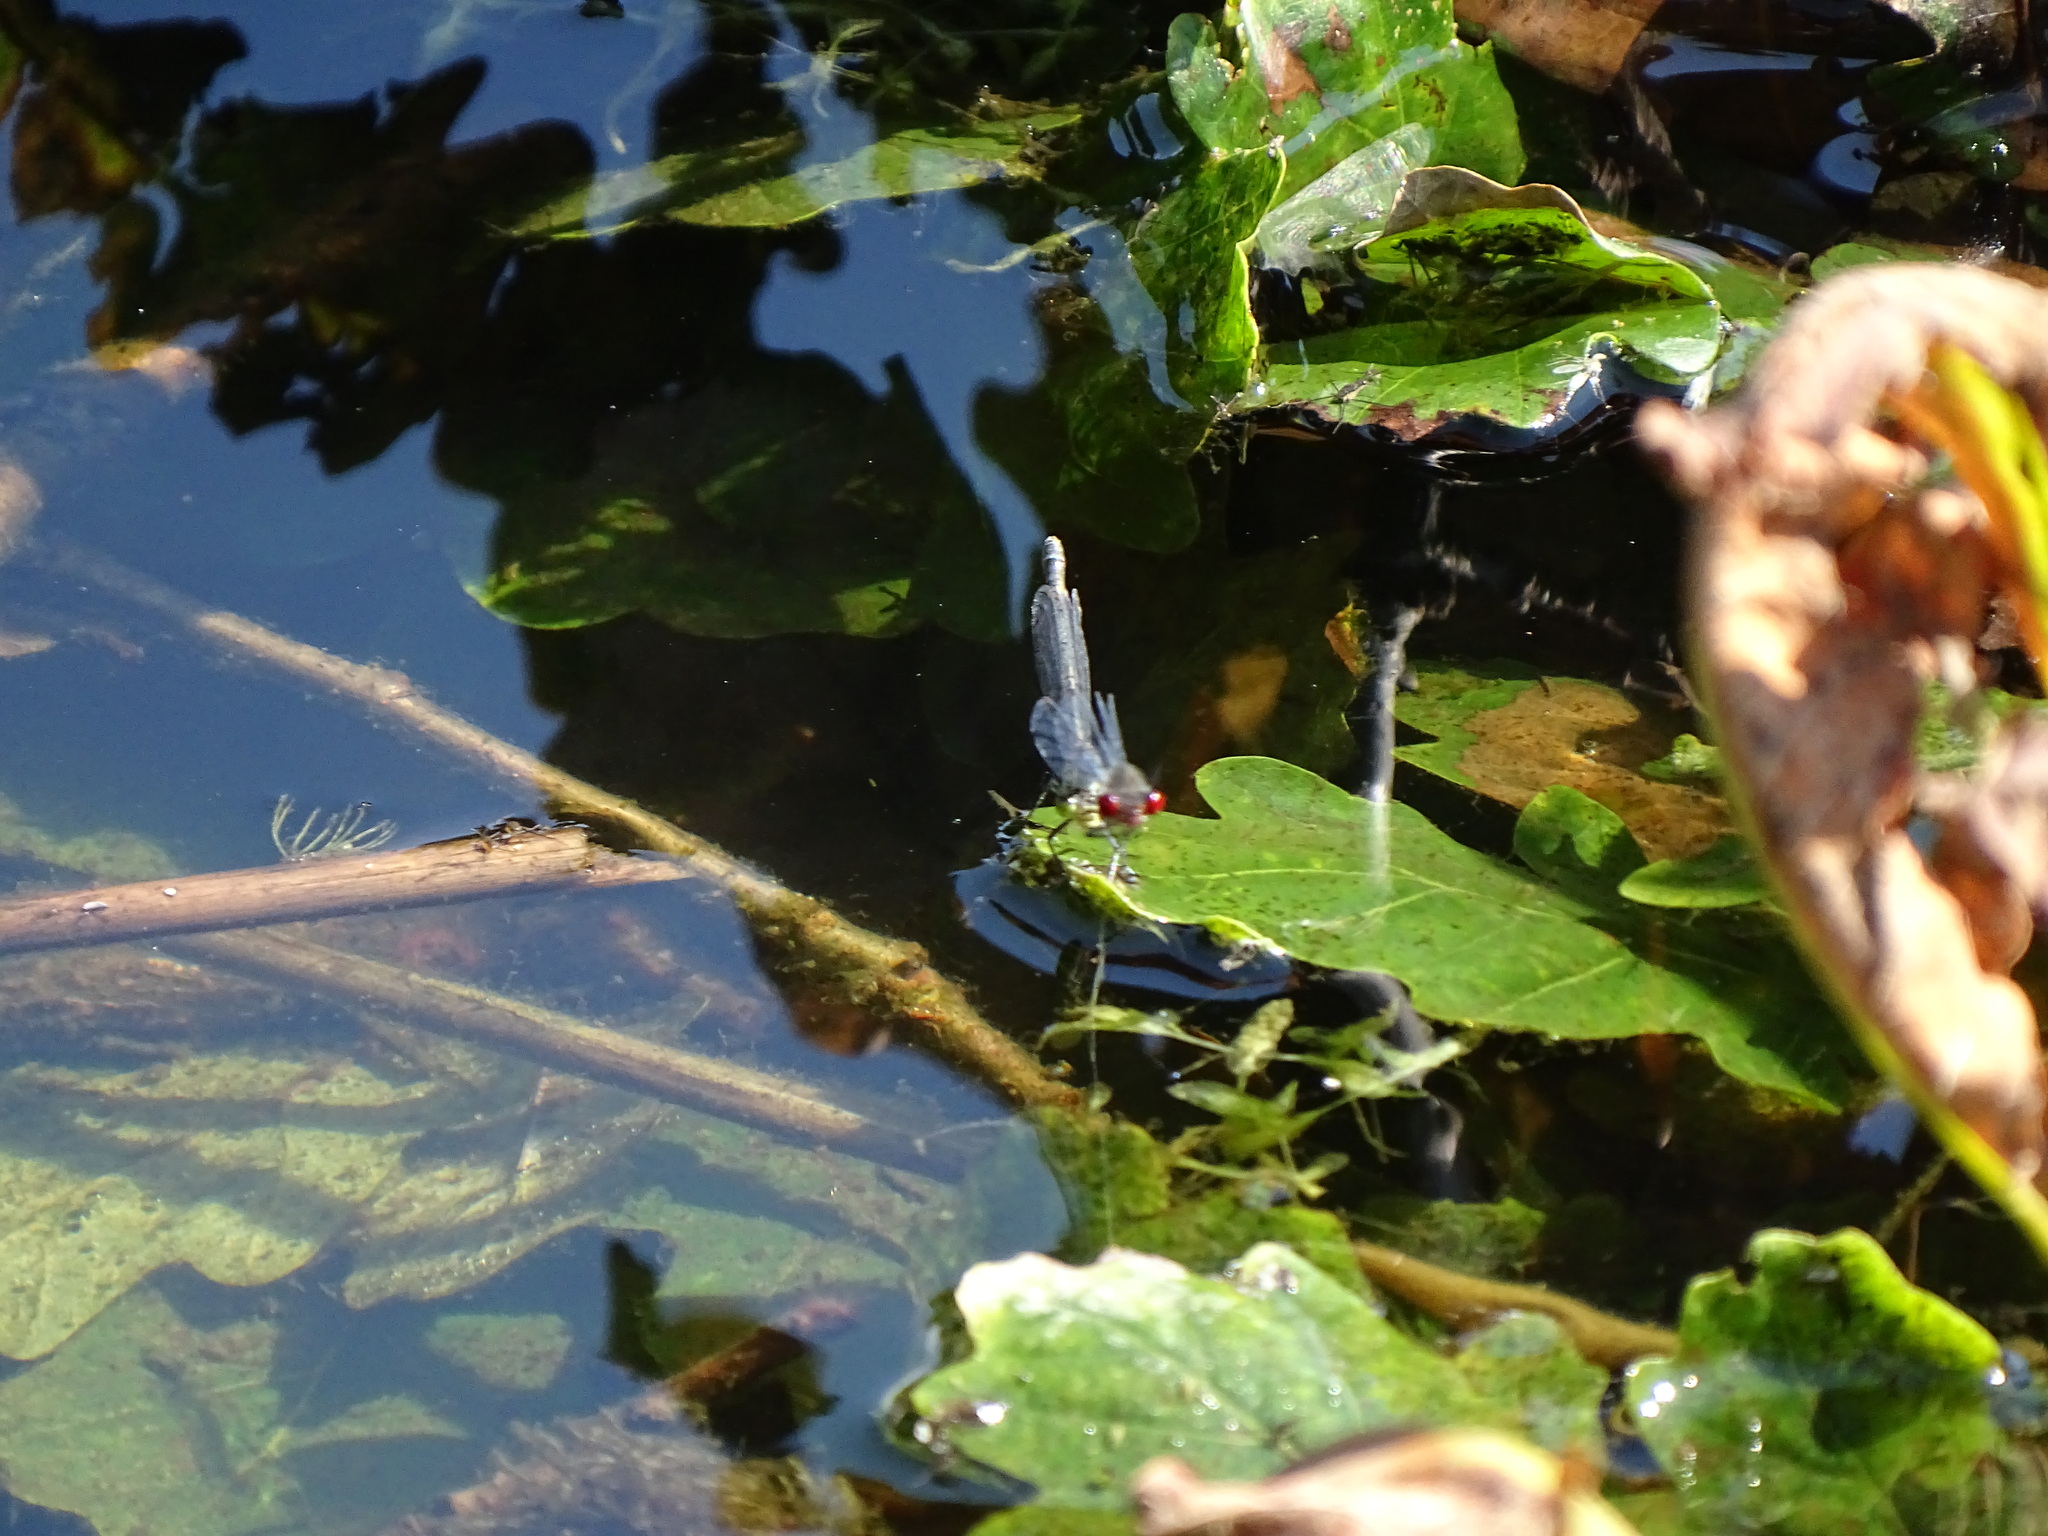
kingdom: Animalia
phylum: Arthropoda
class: Insecta
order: Odonata
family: Coenagrionidae
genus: Erythromma
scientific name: Erythromma najas
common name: Red-eyed damselfly
